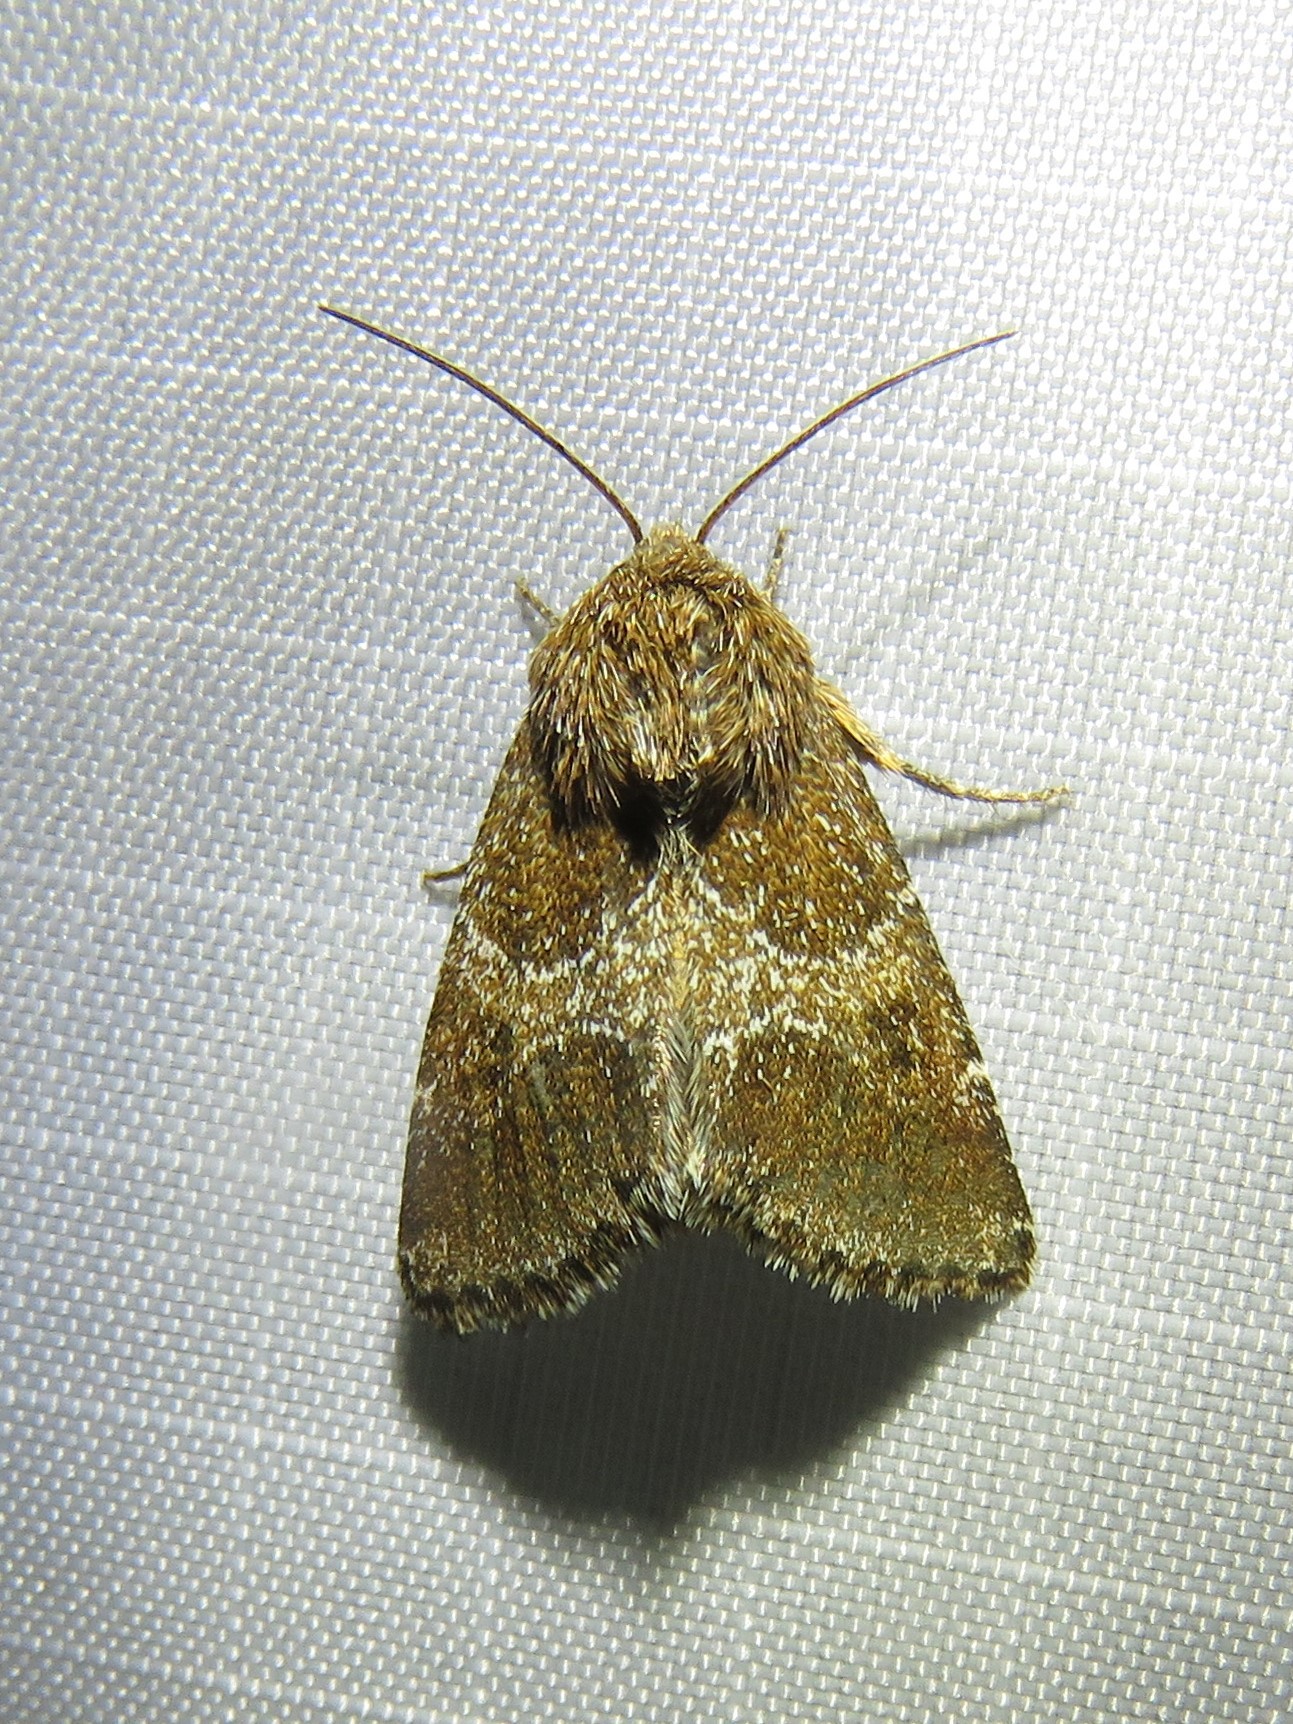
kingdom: Animalia
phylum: Arthropoda
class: Insecta
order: Lepidoptera
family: Noctuidae
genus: Schinia
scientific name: Schinia ultima
